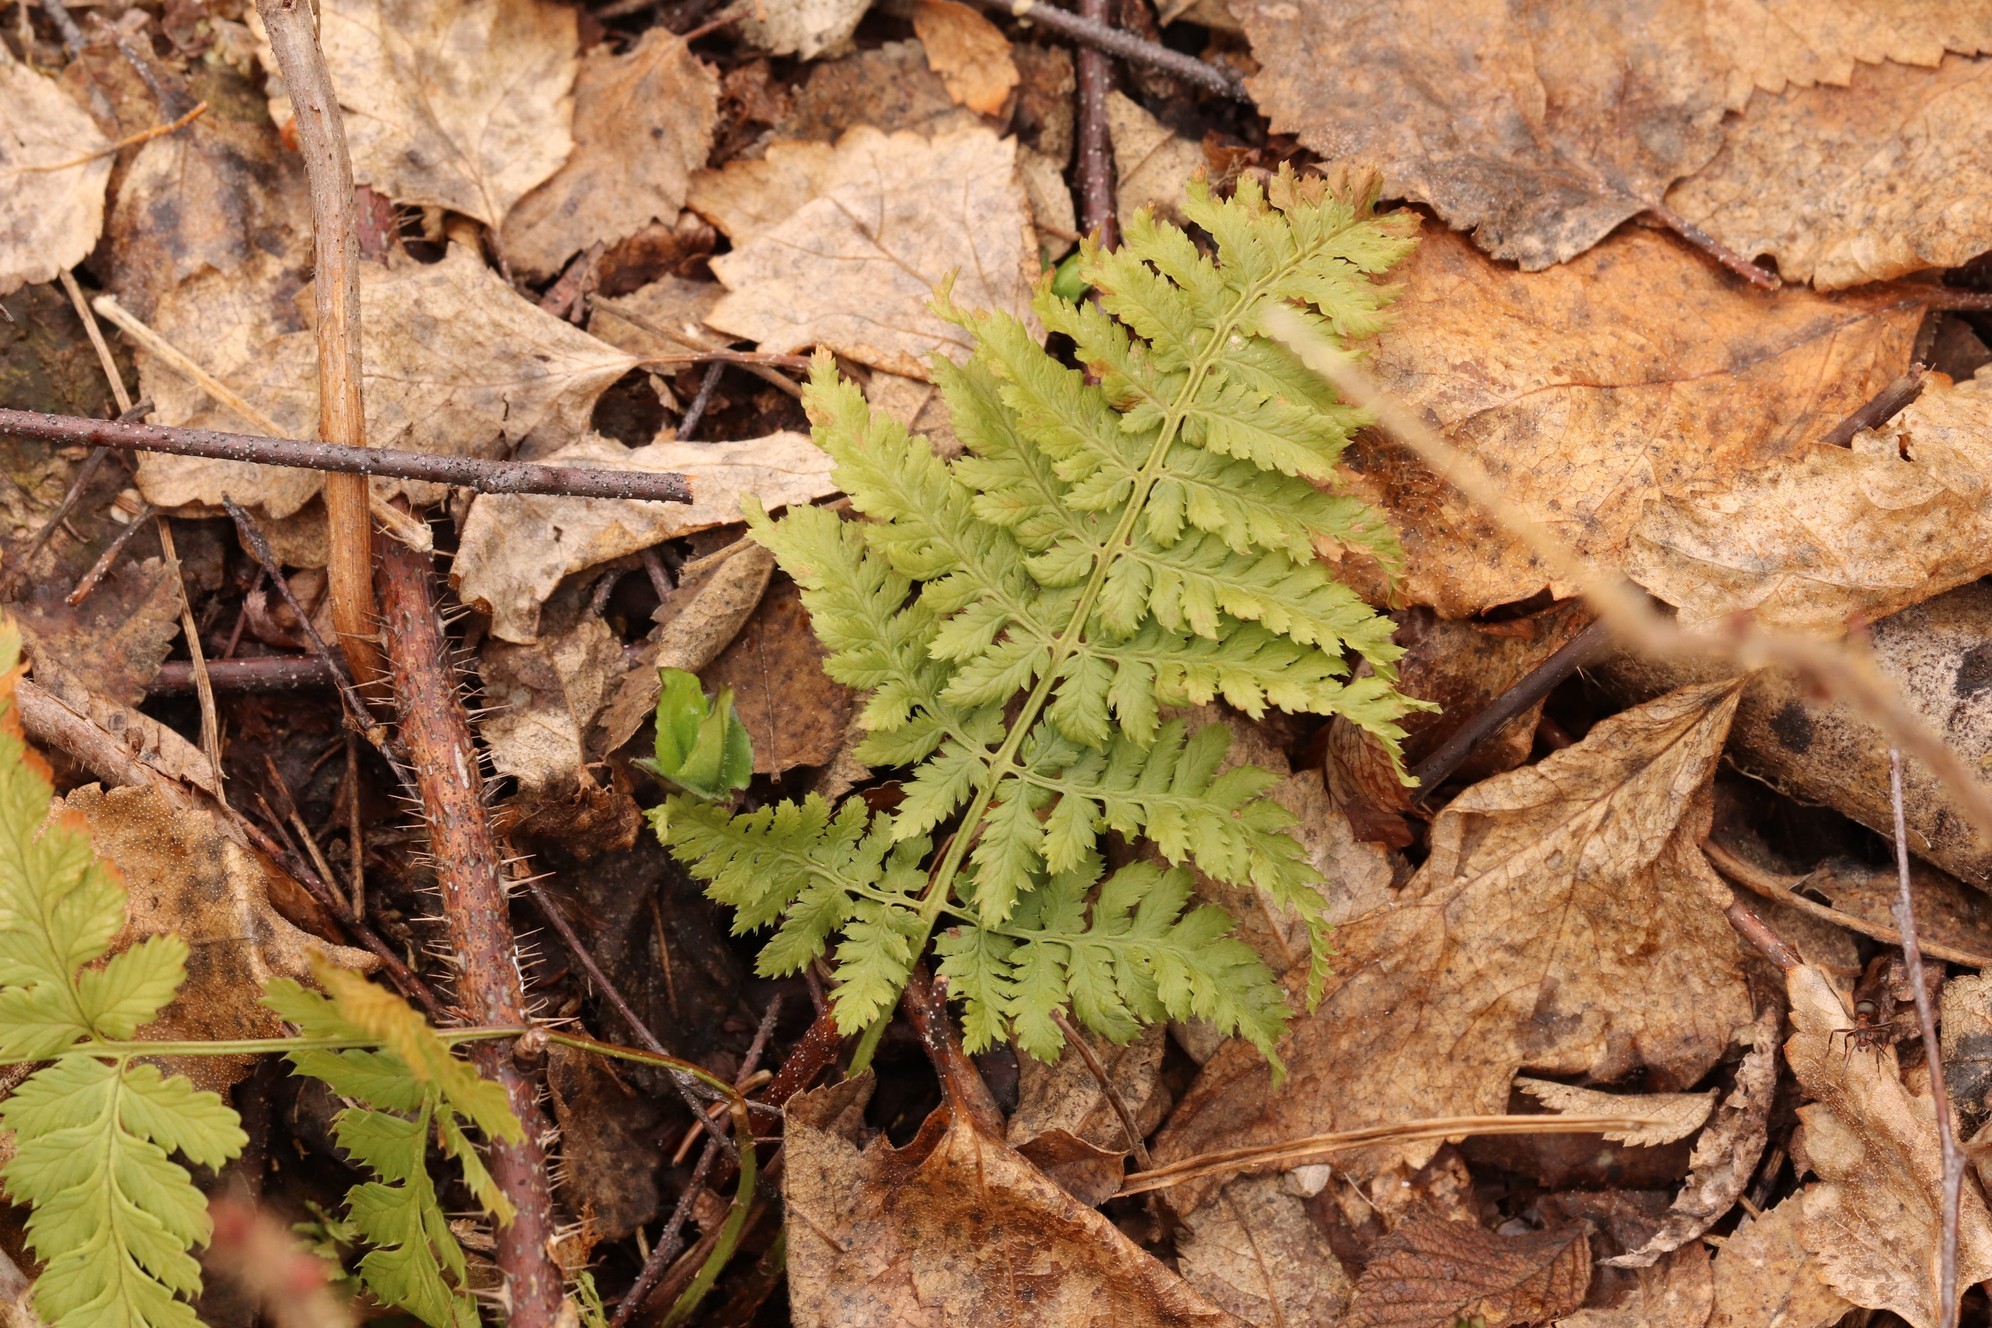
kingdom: Plantae
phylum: Tracheophyta
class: Polypodiopsida
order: Polypodiales
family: Dryopteridaceae
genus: Dryopteris
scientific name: Dryopteris carthusiana
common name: Narrow buckler-fern
